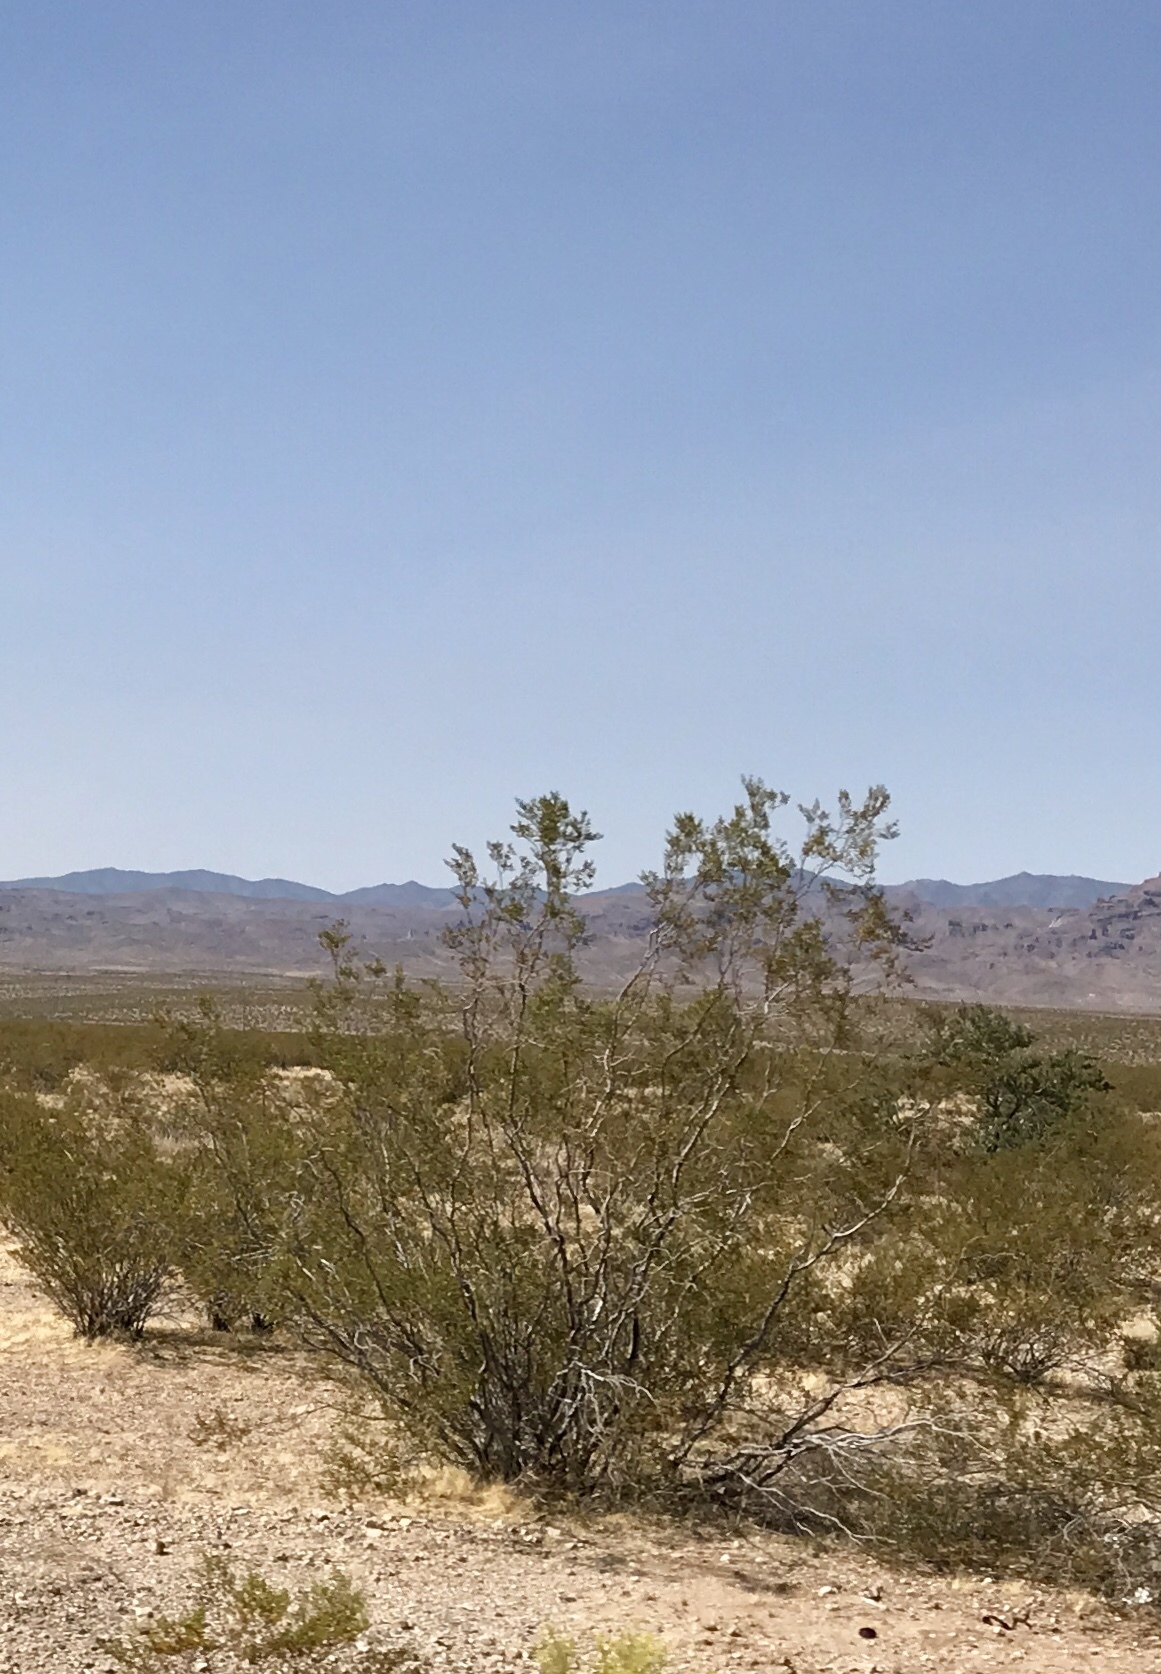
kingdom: Plantae
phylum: Tracheophyta
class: Magnoliopsida
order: Zygophyllales
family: Zygophyllaceae
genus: Larrea
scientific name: Larrea tridentata
